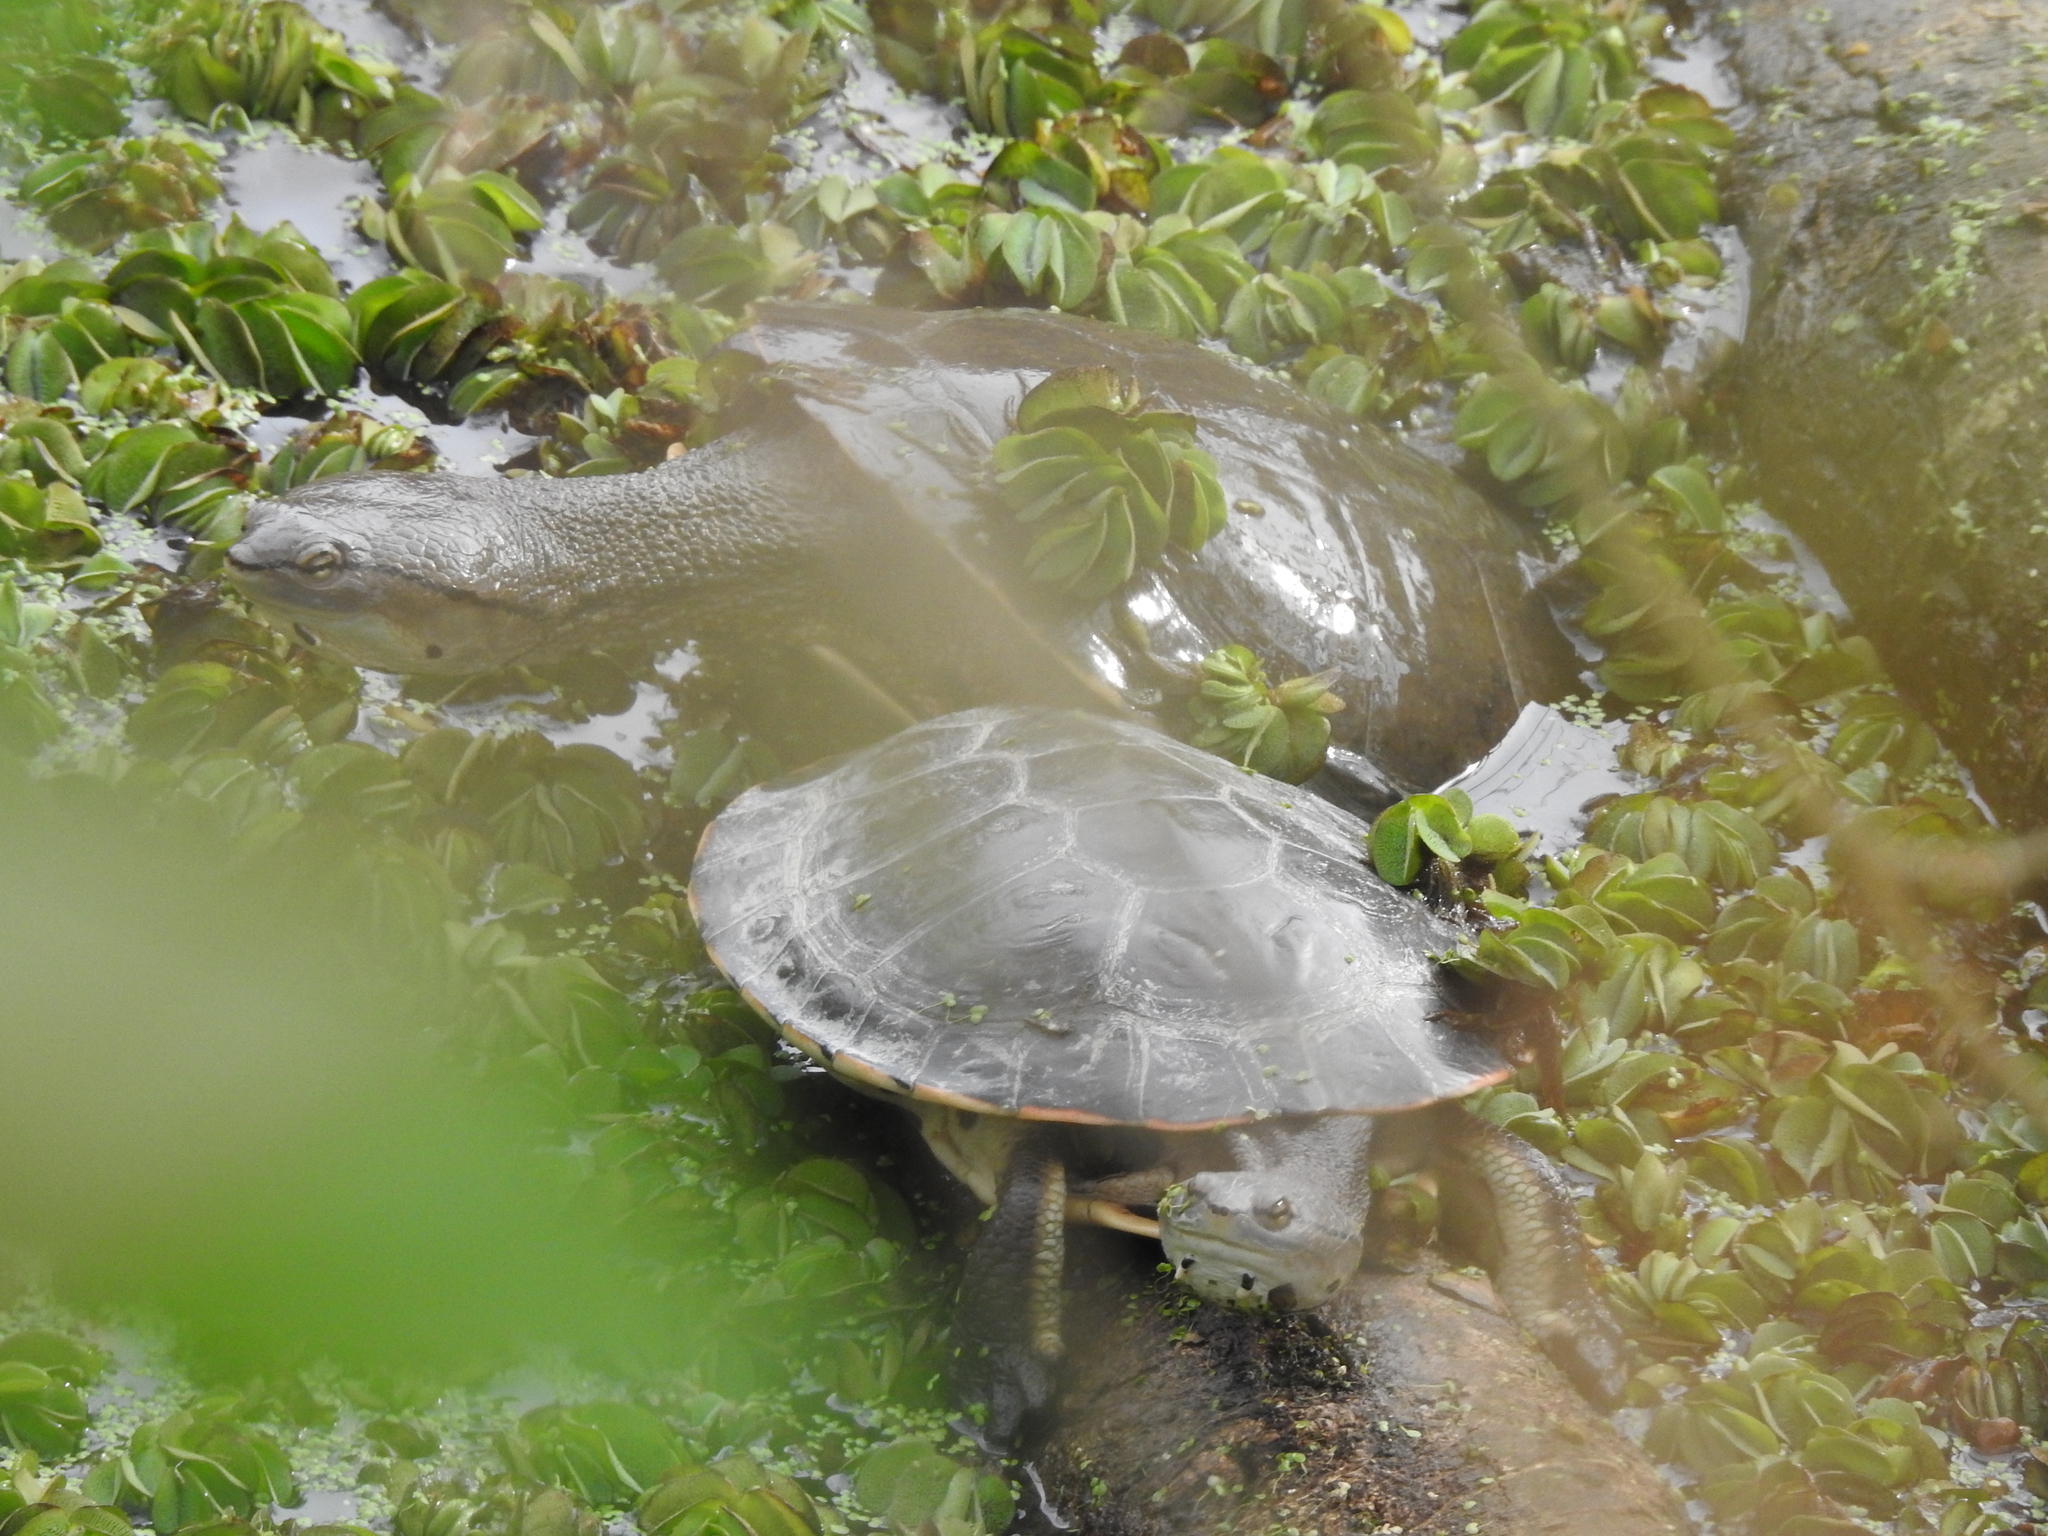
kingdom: Animalia
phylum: Chordata
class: Testudines
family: Chelidae
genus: Phrynops
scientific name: Phrynops hilarii
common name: Side-necked turtle of saint hillaire
